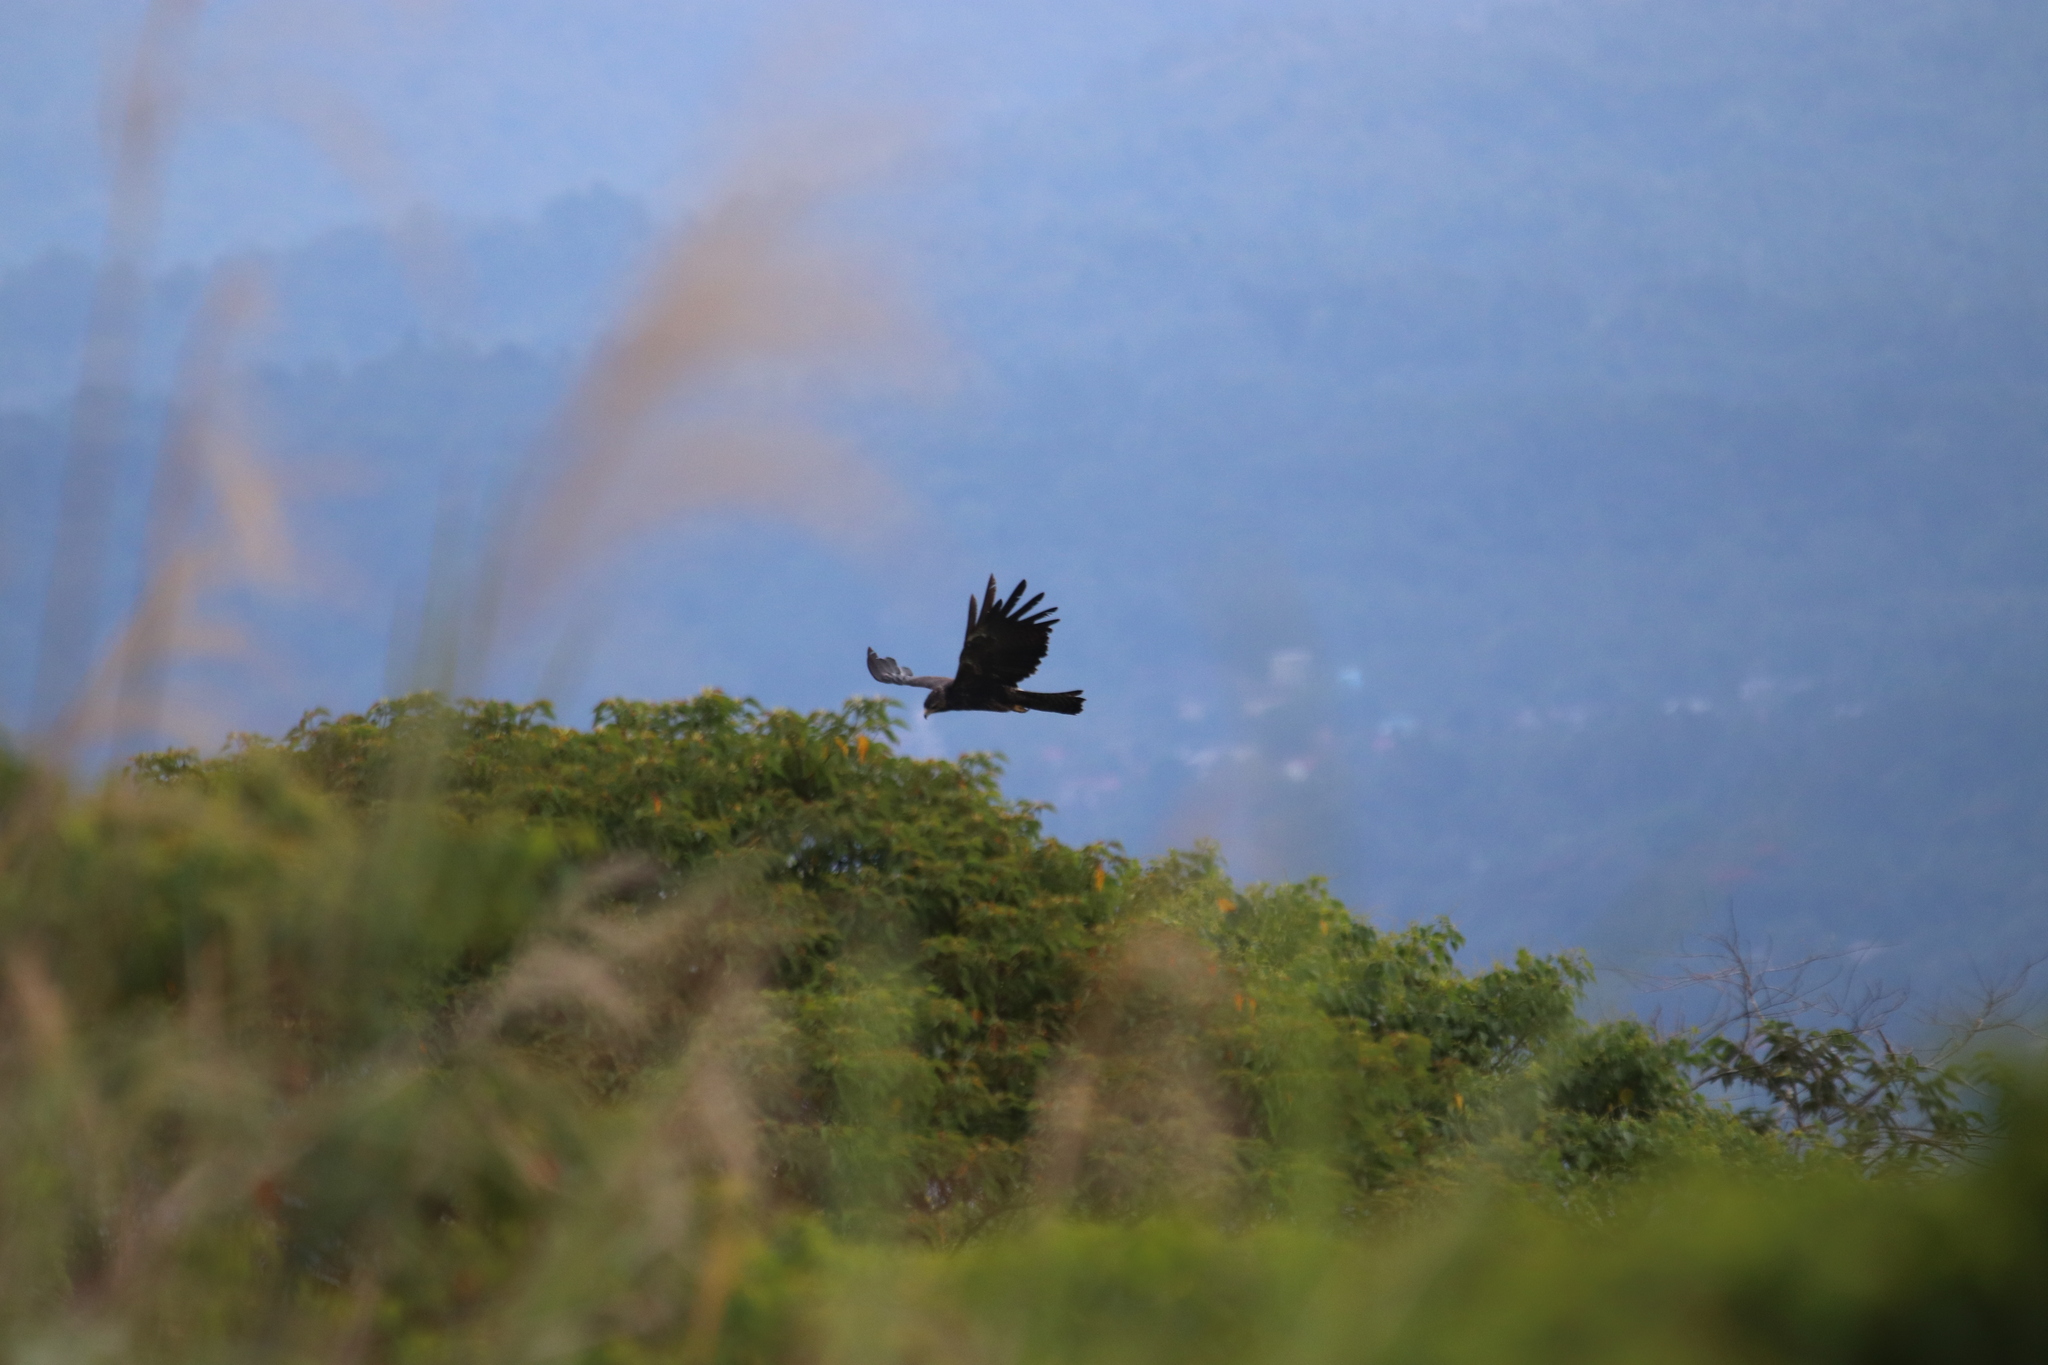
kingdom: Animalia
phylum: Chordata
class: Aves
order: Accipitriformes
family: Accipitridae
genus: Ictinaetus
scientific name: Ictinaetus malayensis
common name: Black eagle
